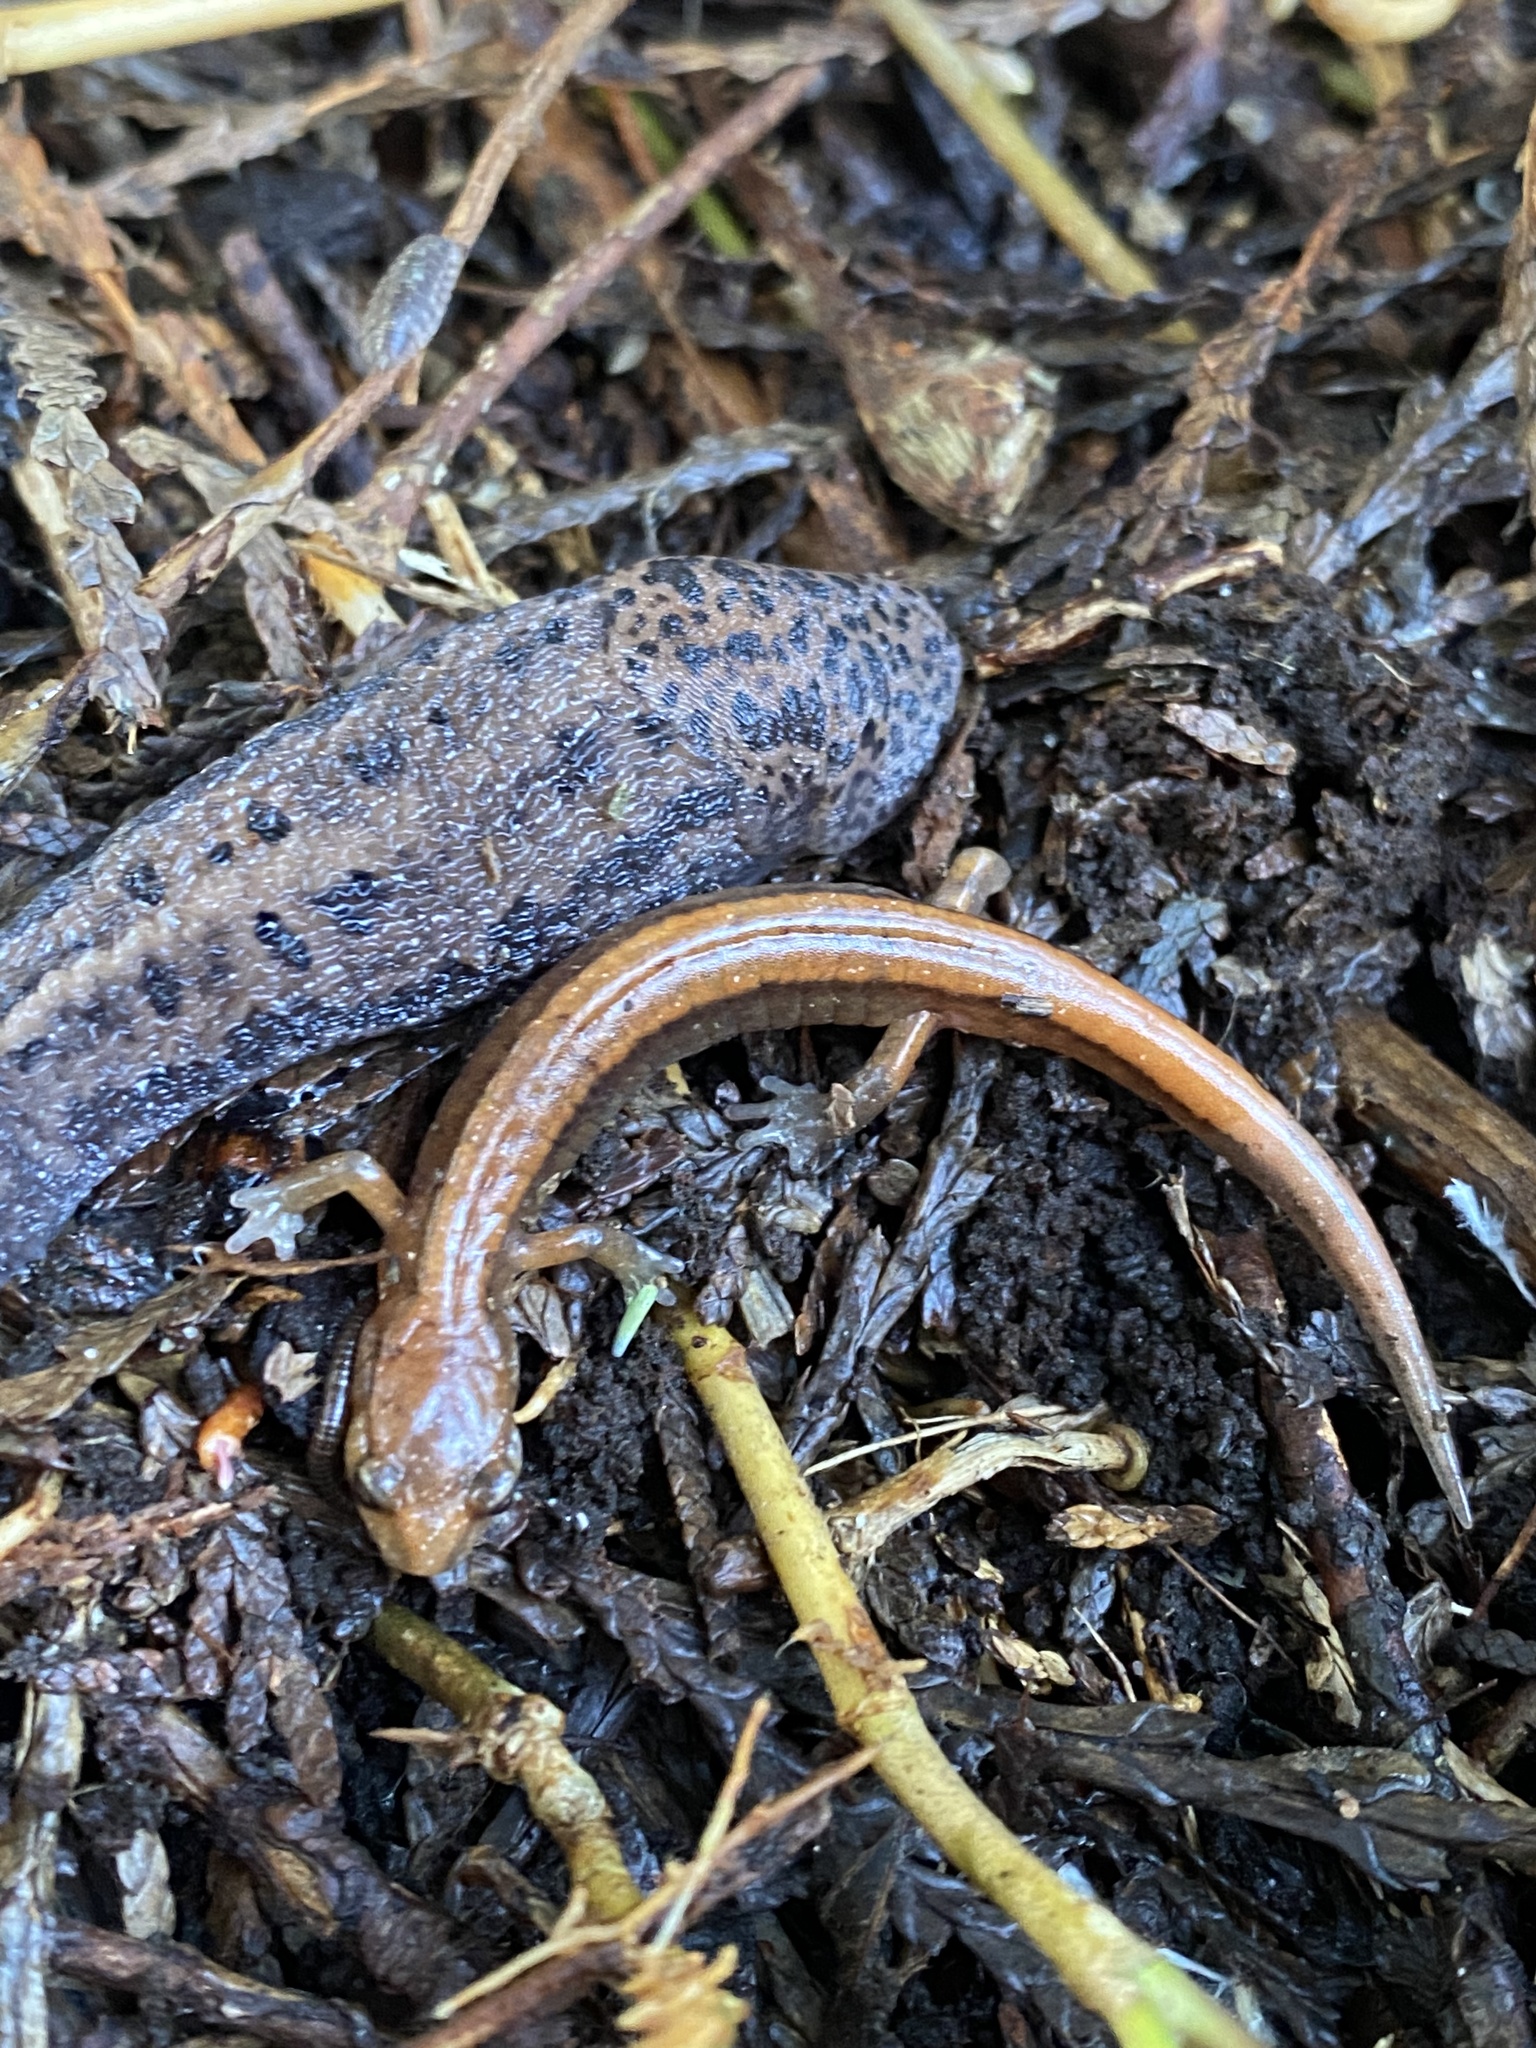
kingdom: Animalia
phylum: Chordata
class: Amphibia
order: Caudata
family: Plethodontidae
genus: Plethodon
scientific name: Plethodon vehiculum
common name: Western red-backed salamander
